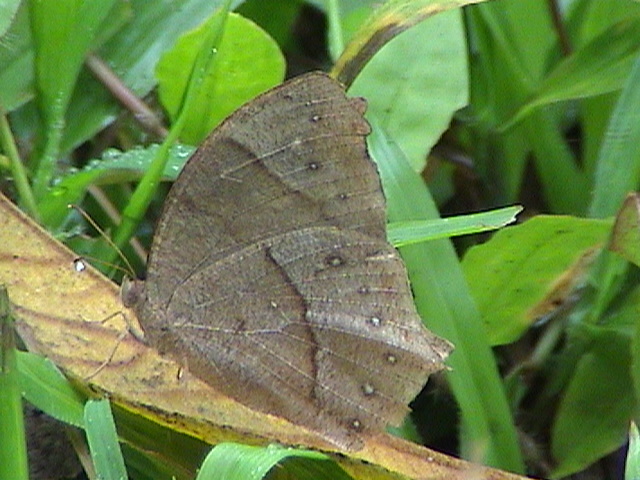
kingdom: Animalia
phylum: Arthropoda
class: Insecta
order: Lepidoptera
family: Nymphalidae
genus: Melanitis
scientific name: Melanitis phedima
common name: Dark evening brown
